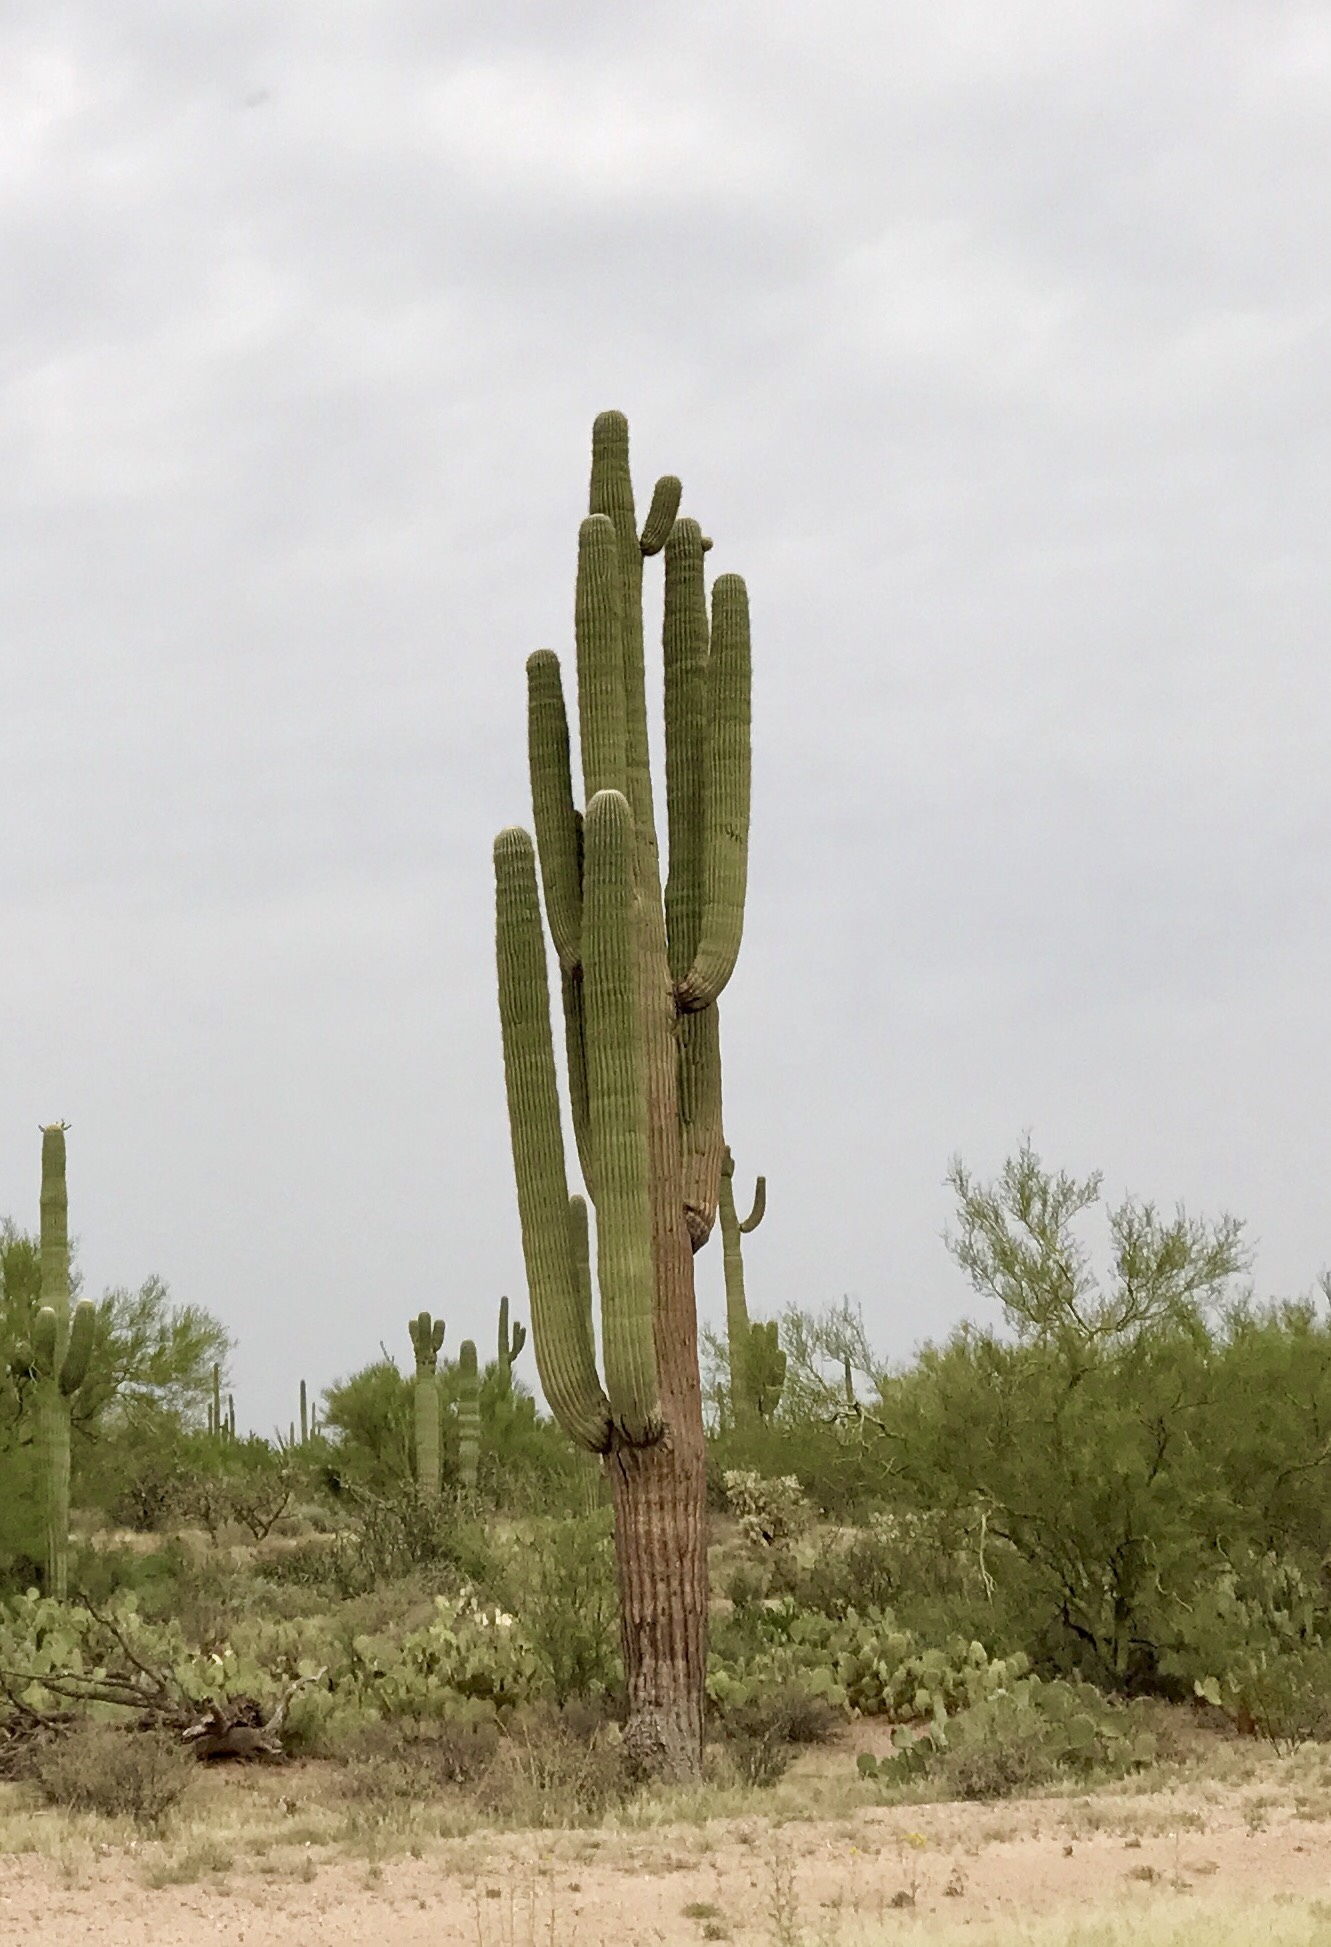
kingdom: Plantae
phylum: Tracheophyta
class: Magnoliopsida
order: Caryophyllales
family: Cactaceae
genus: Carnegiea
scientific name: Carnegiea gigantea
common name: Saguaro
